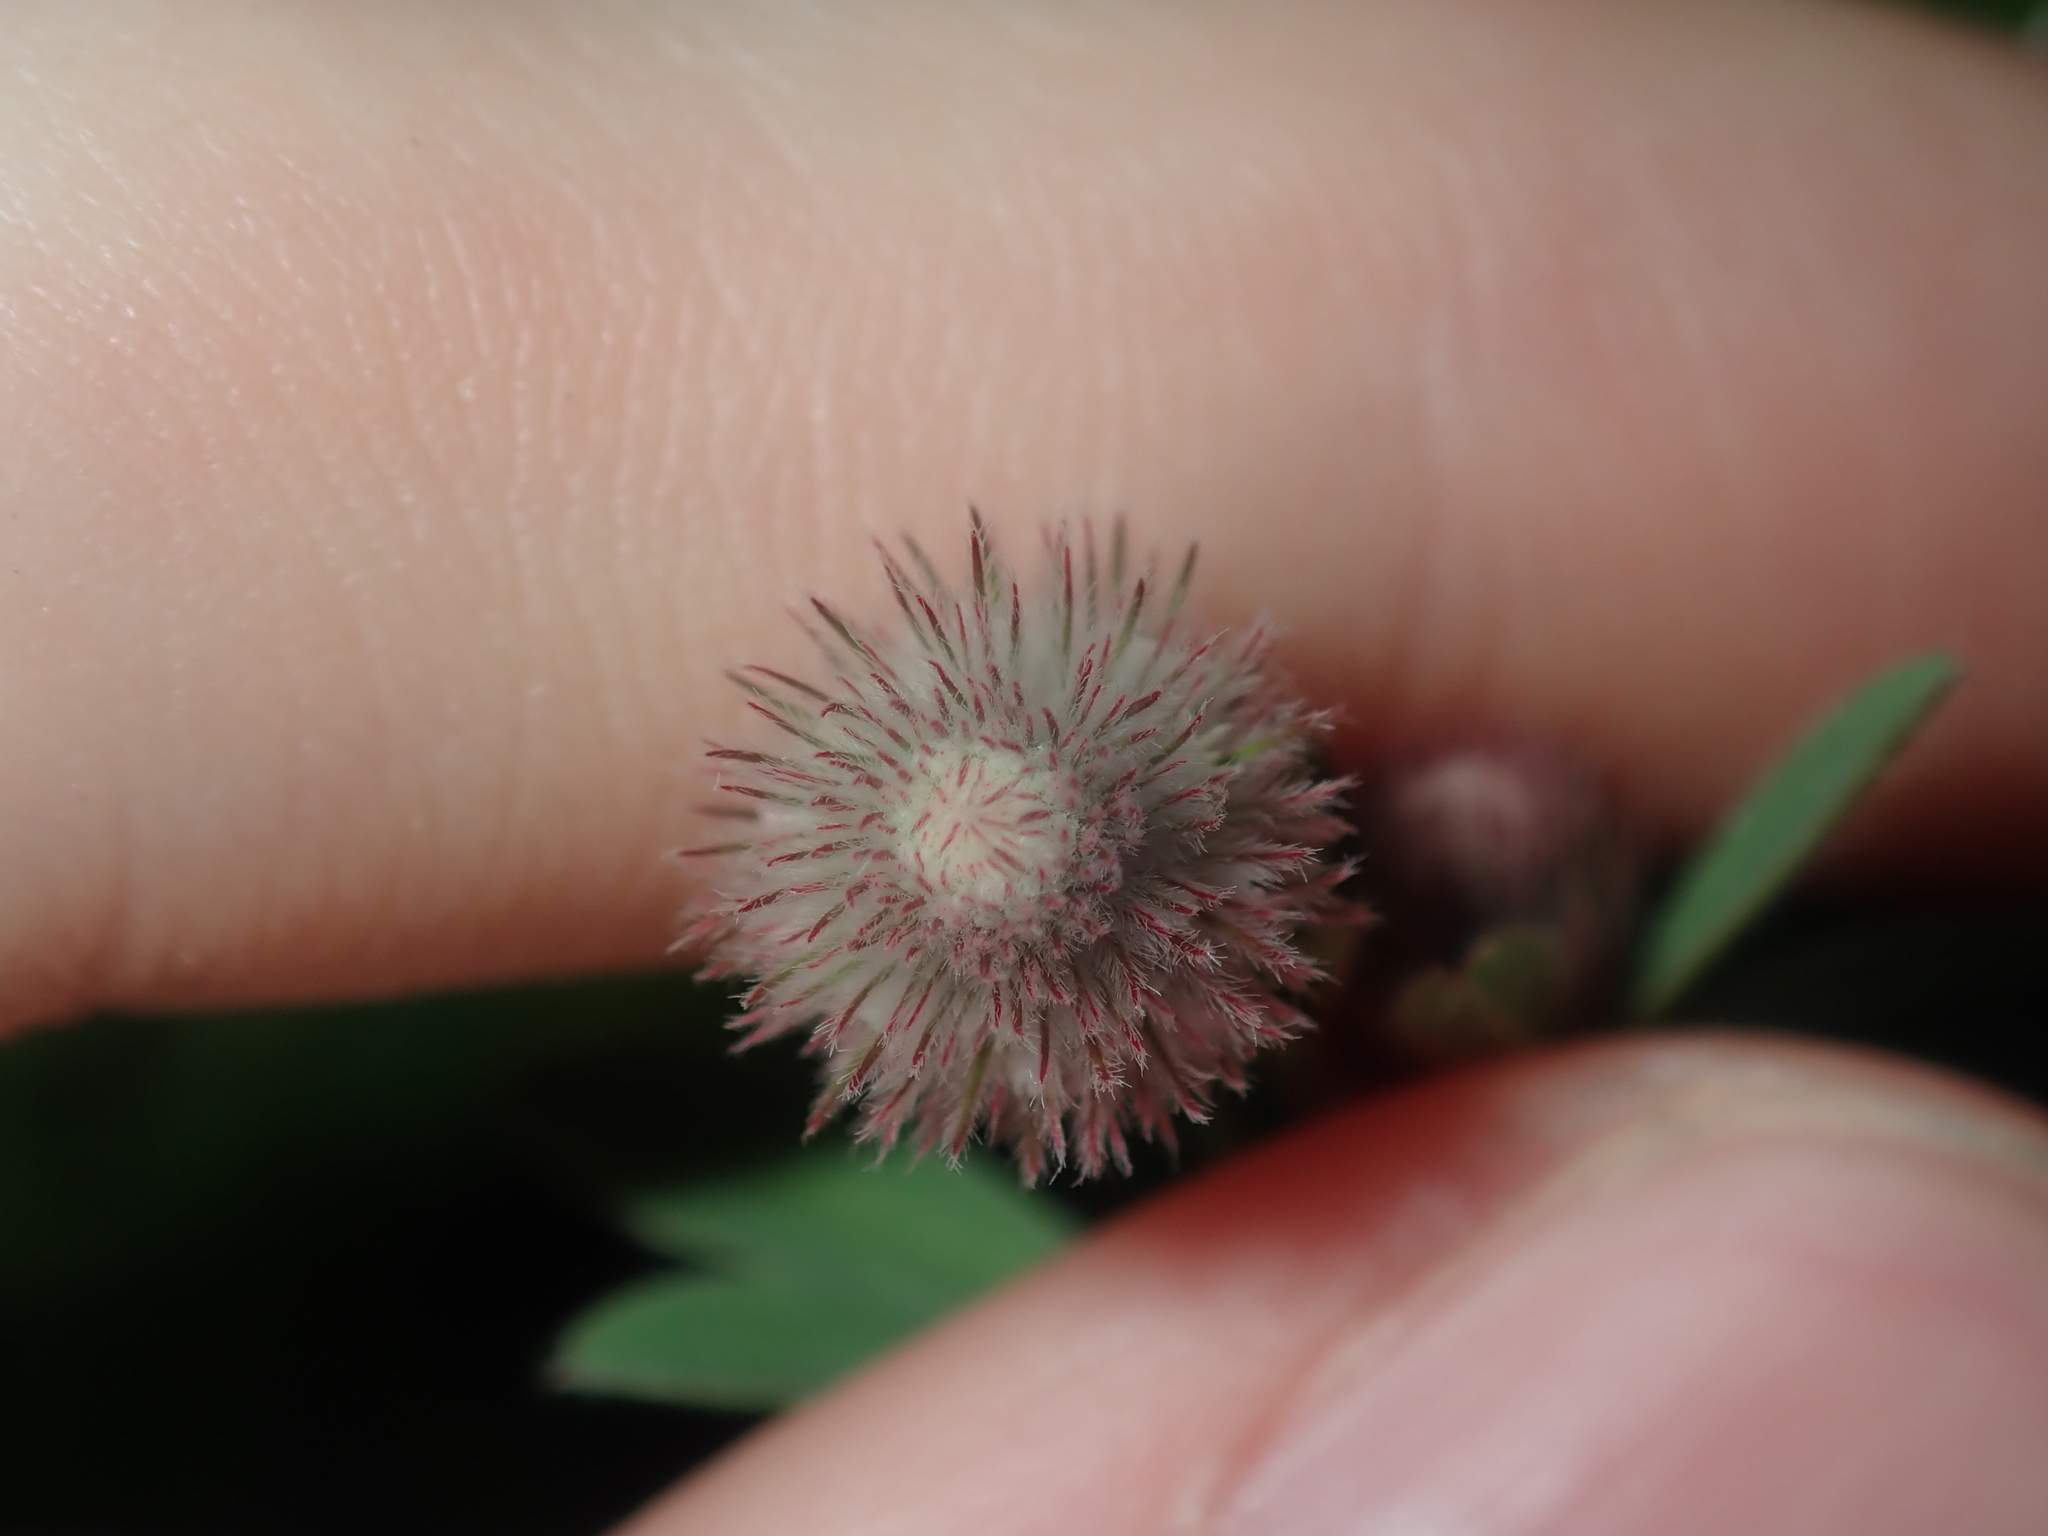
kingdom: Plantae
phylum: Tracheophyta
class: Magnoliopsida
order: Fabales
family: Fabaceae
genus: Trifolium
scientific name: Trifolium arvense
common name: Hare's-foot clover
